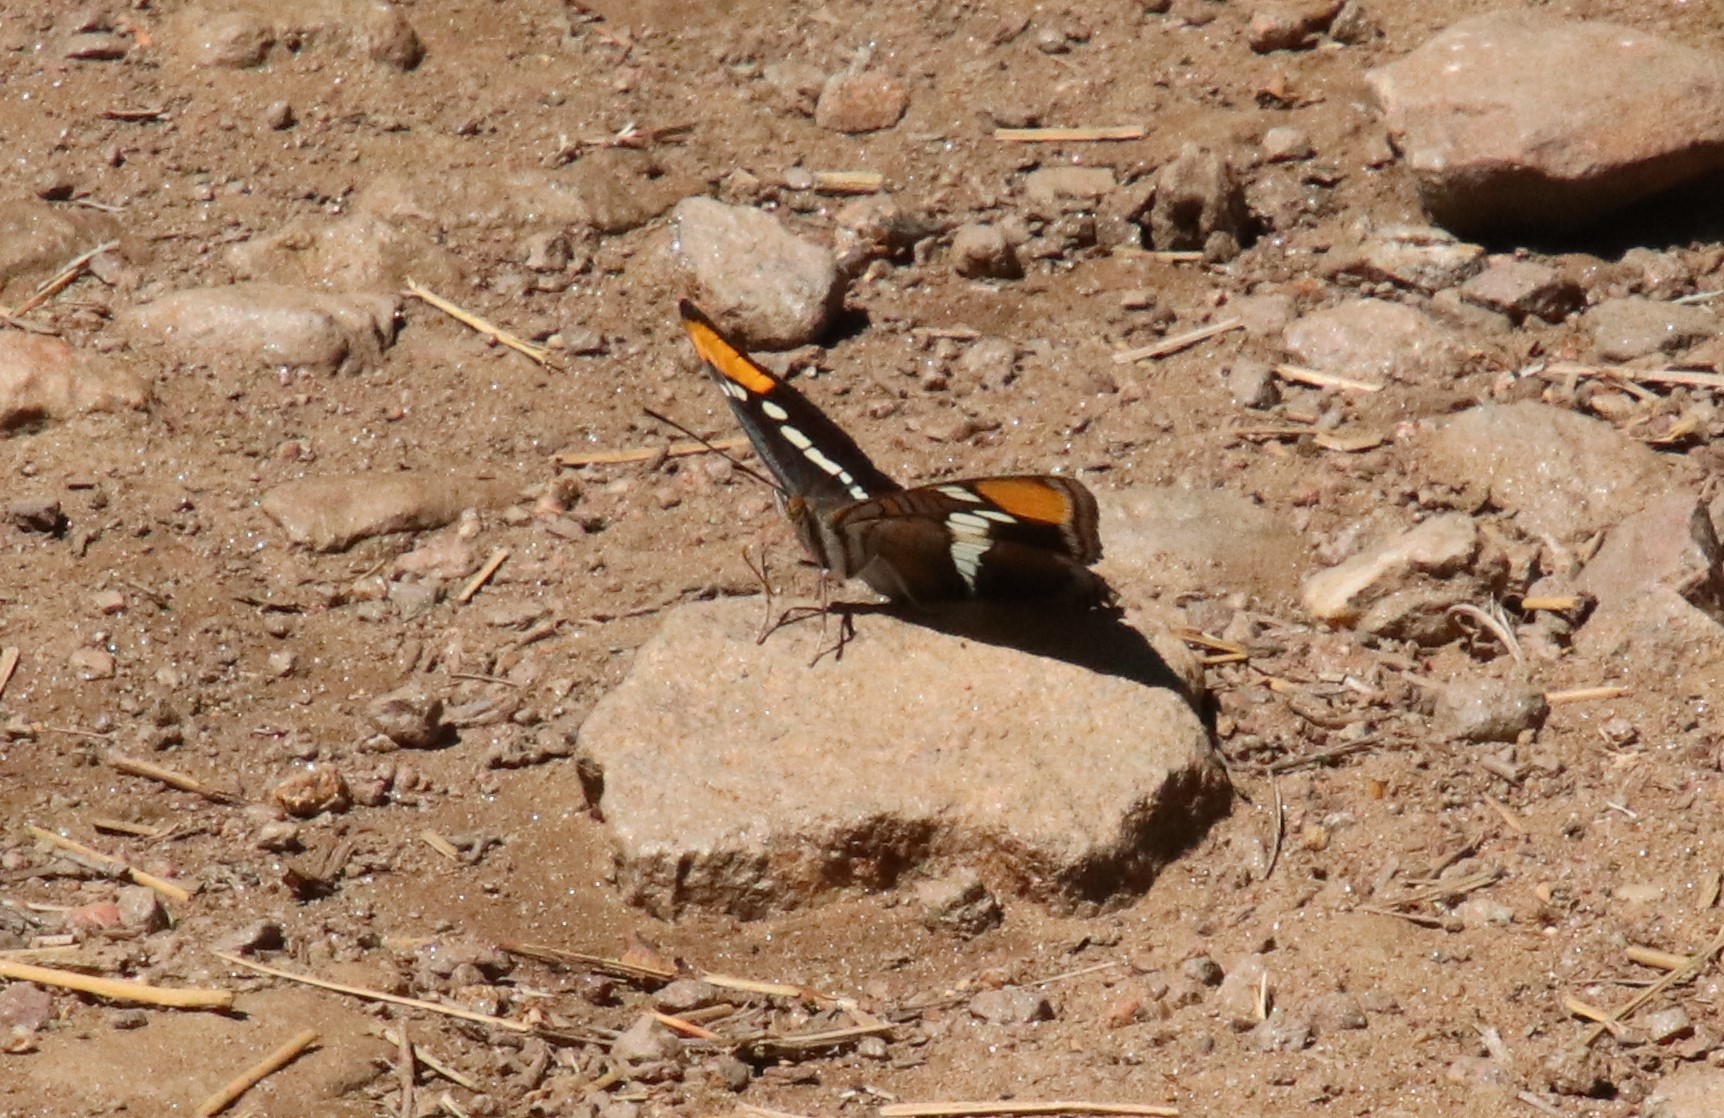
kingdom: Animalia
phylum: Arthropoda
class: Insecta
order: Lepidoptera
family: Nymphalidae
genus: Limenitis
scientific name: Limenitis bredowii
